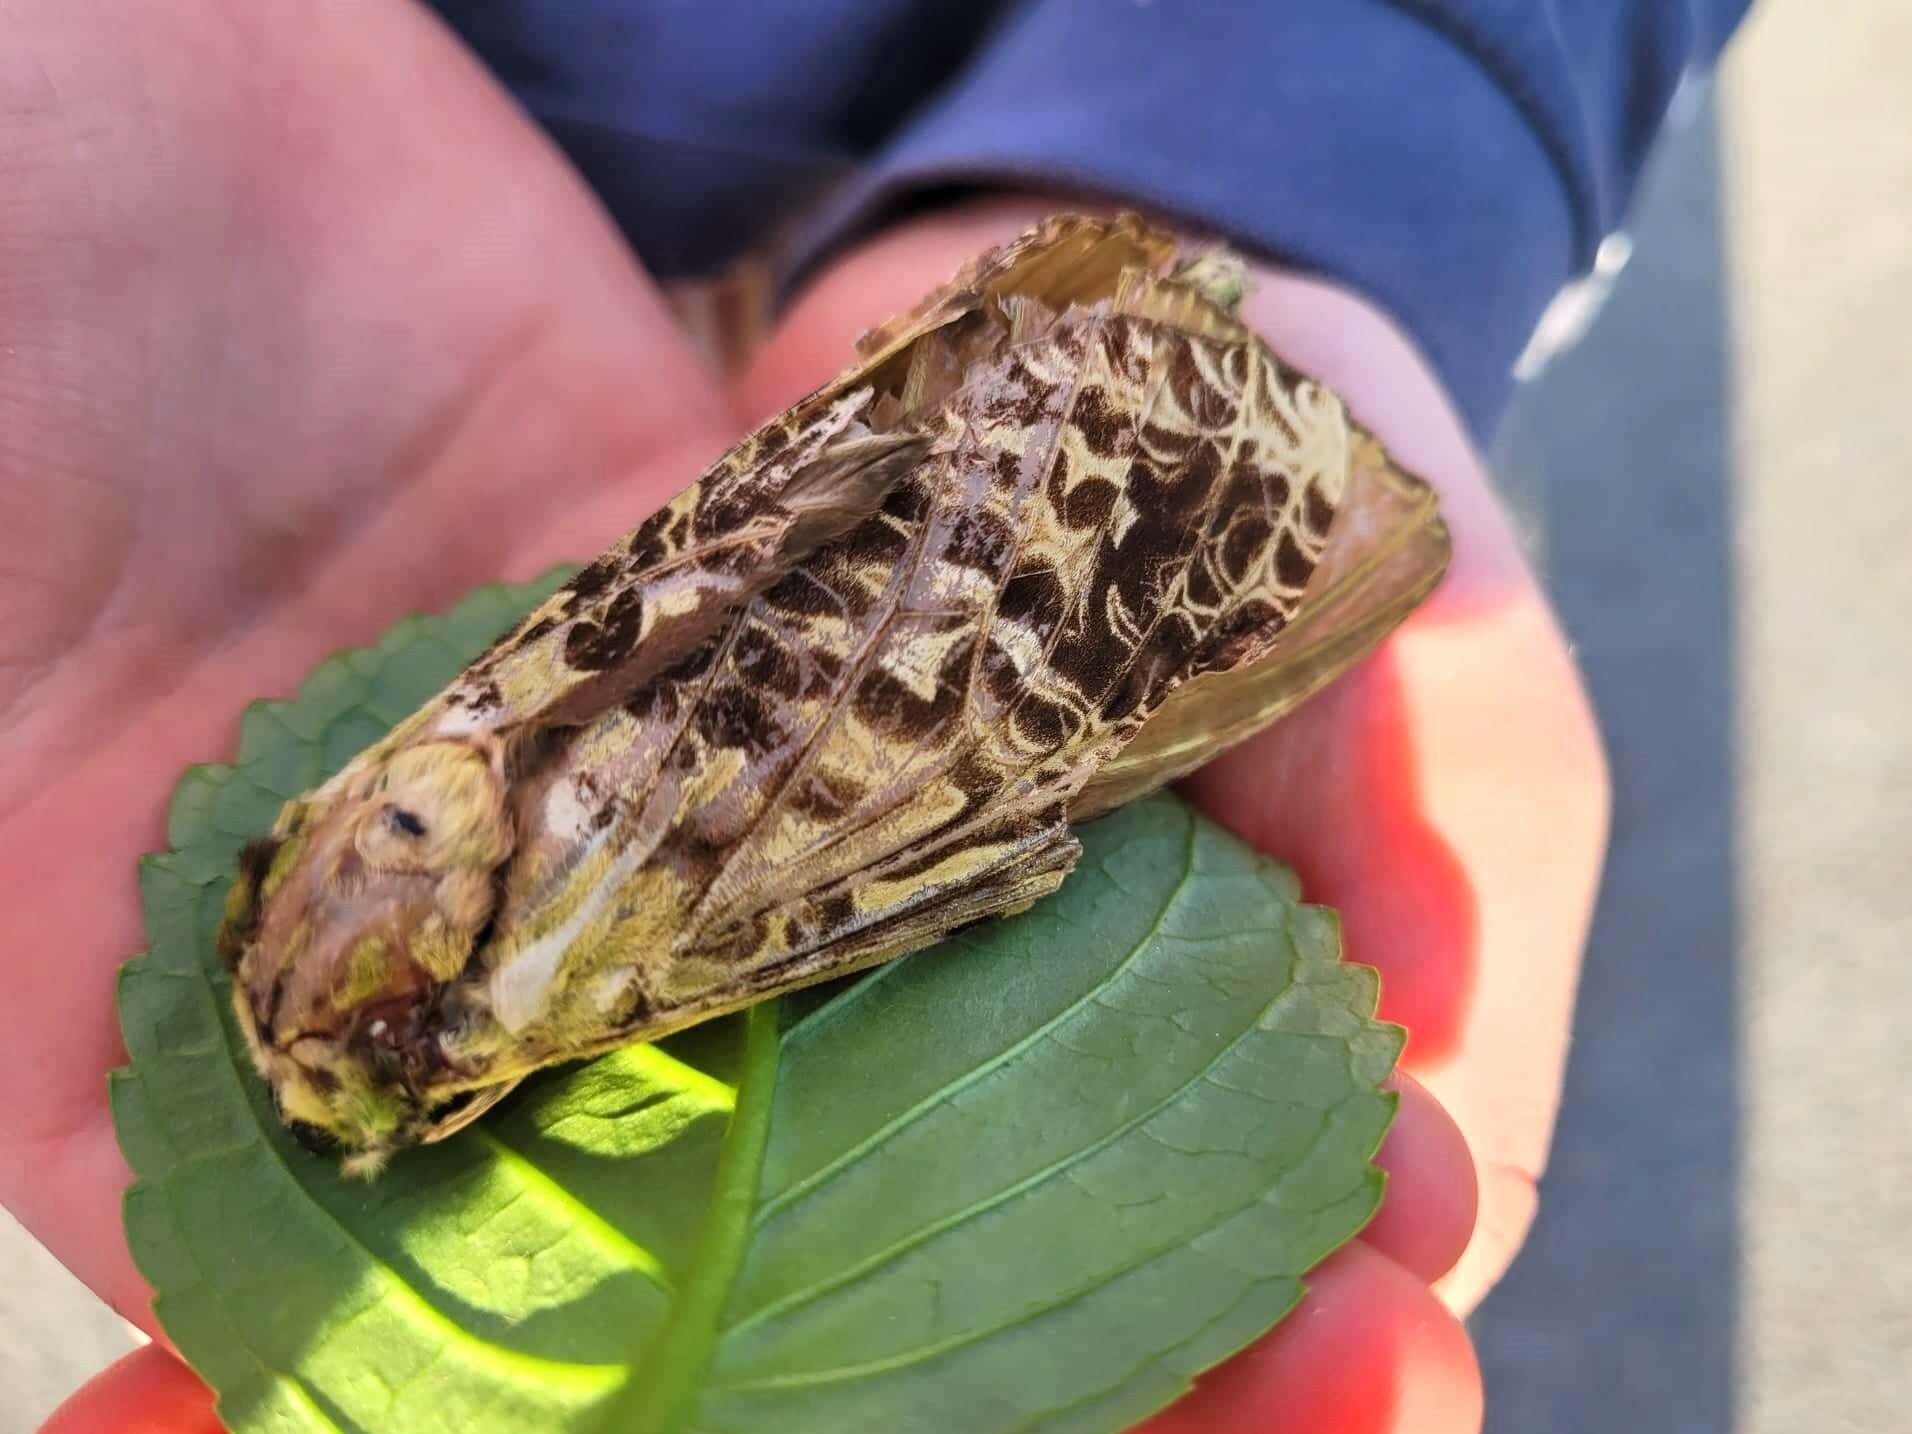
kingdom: Animalia
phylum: Arthropoda
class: Insecta
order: Lepidoptera
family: Hepialidae
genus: Aenetus
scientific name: Aenetus virescens
